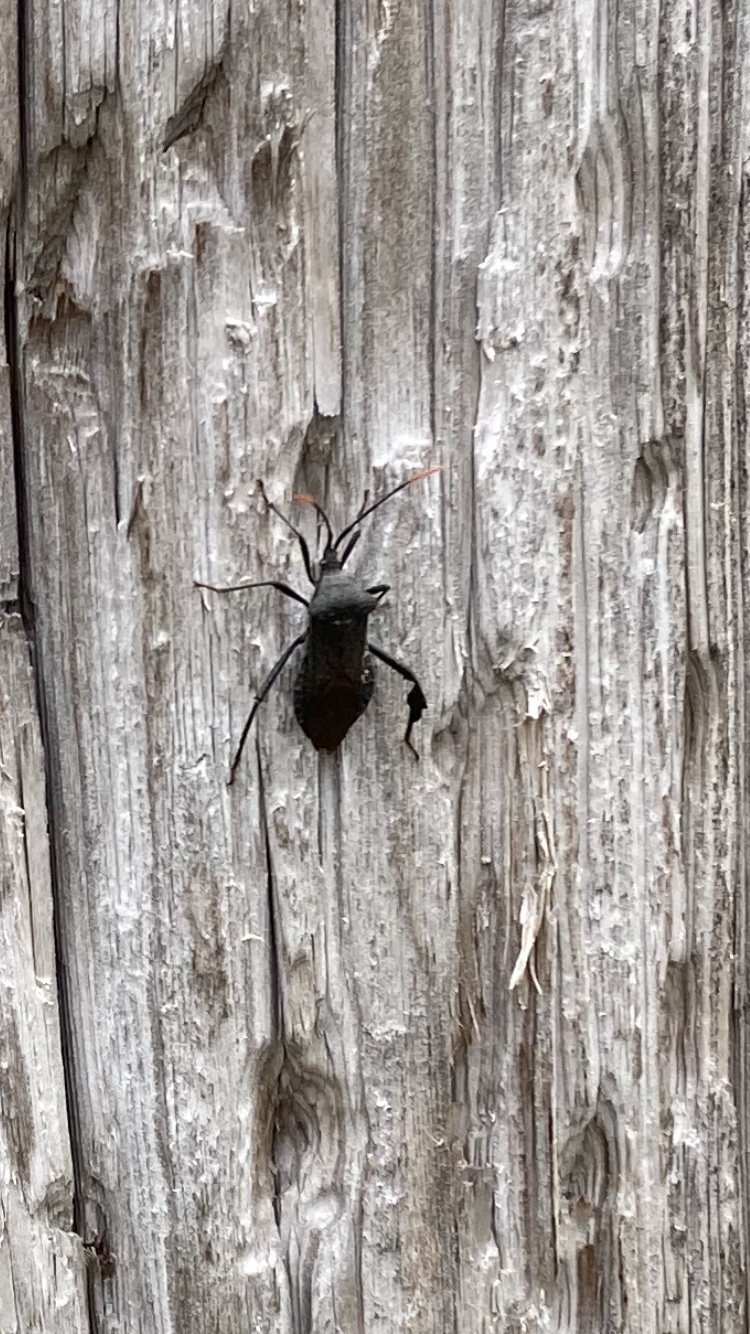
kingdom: Animalia
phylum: Arthropoda
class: Insecta
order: Hemiptera
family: Coreidae
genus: Acanthocephala
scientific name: Acanthocephala terminalis
